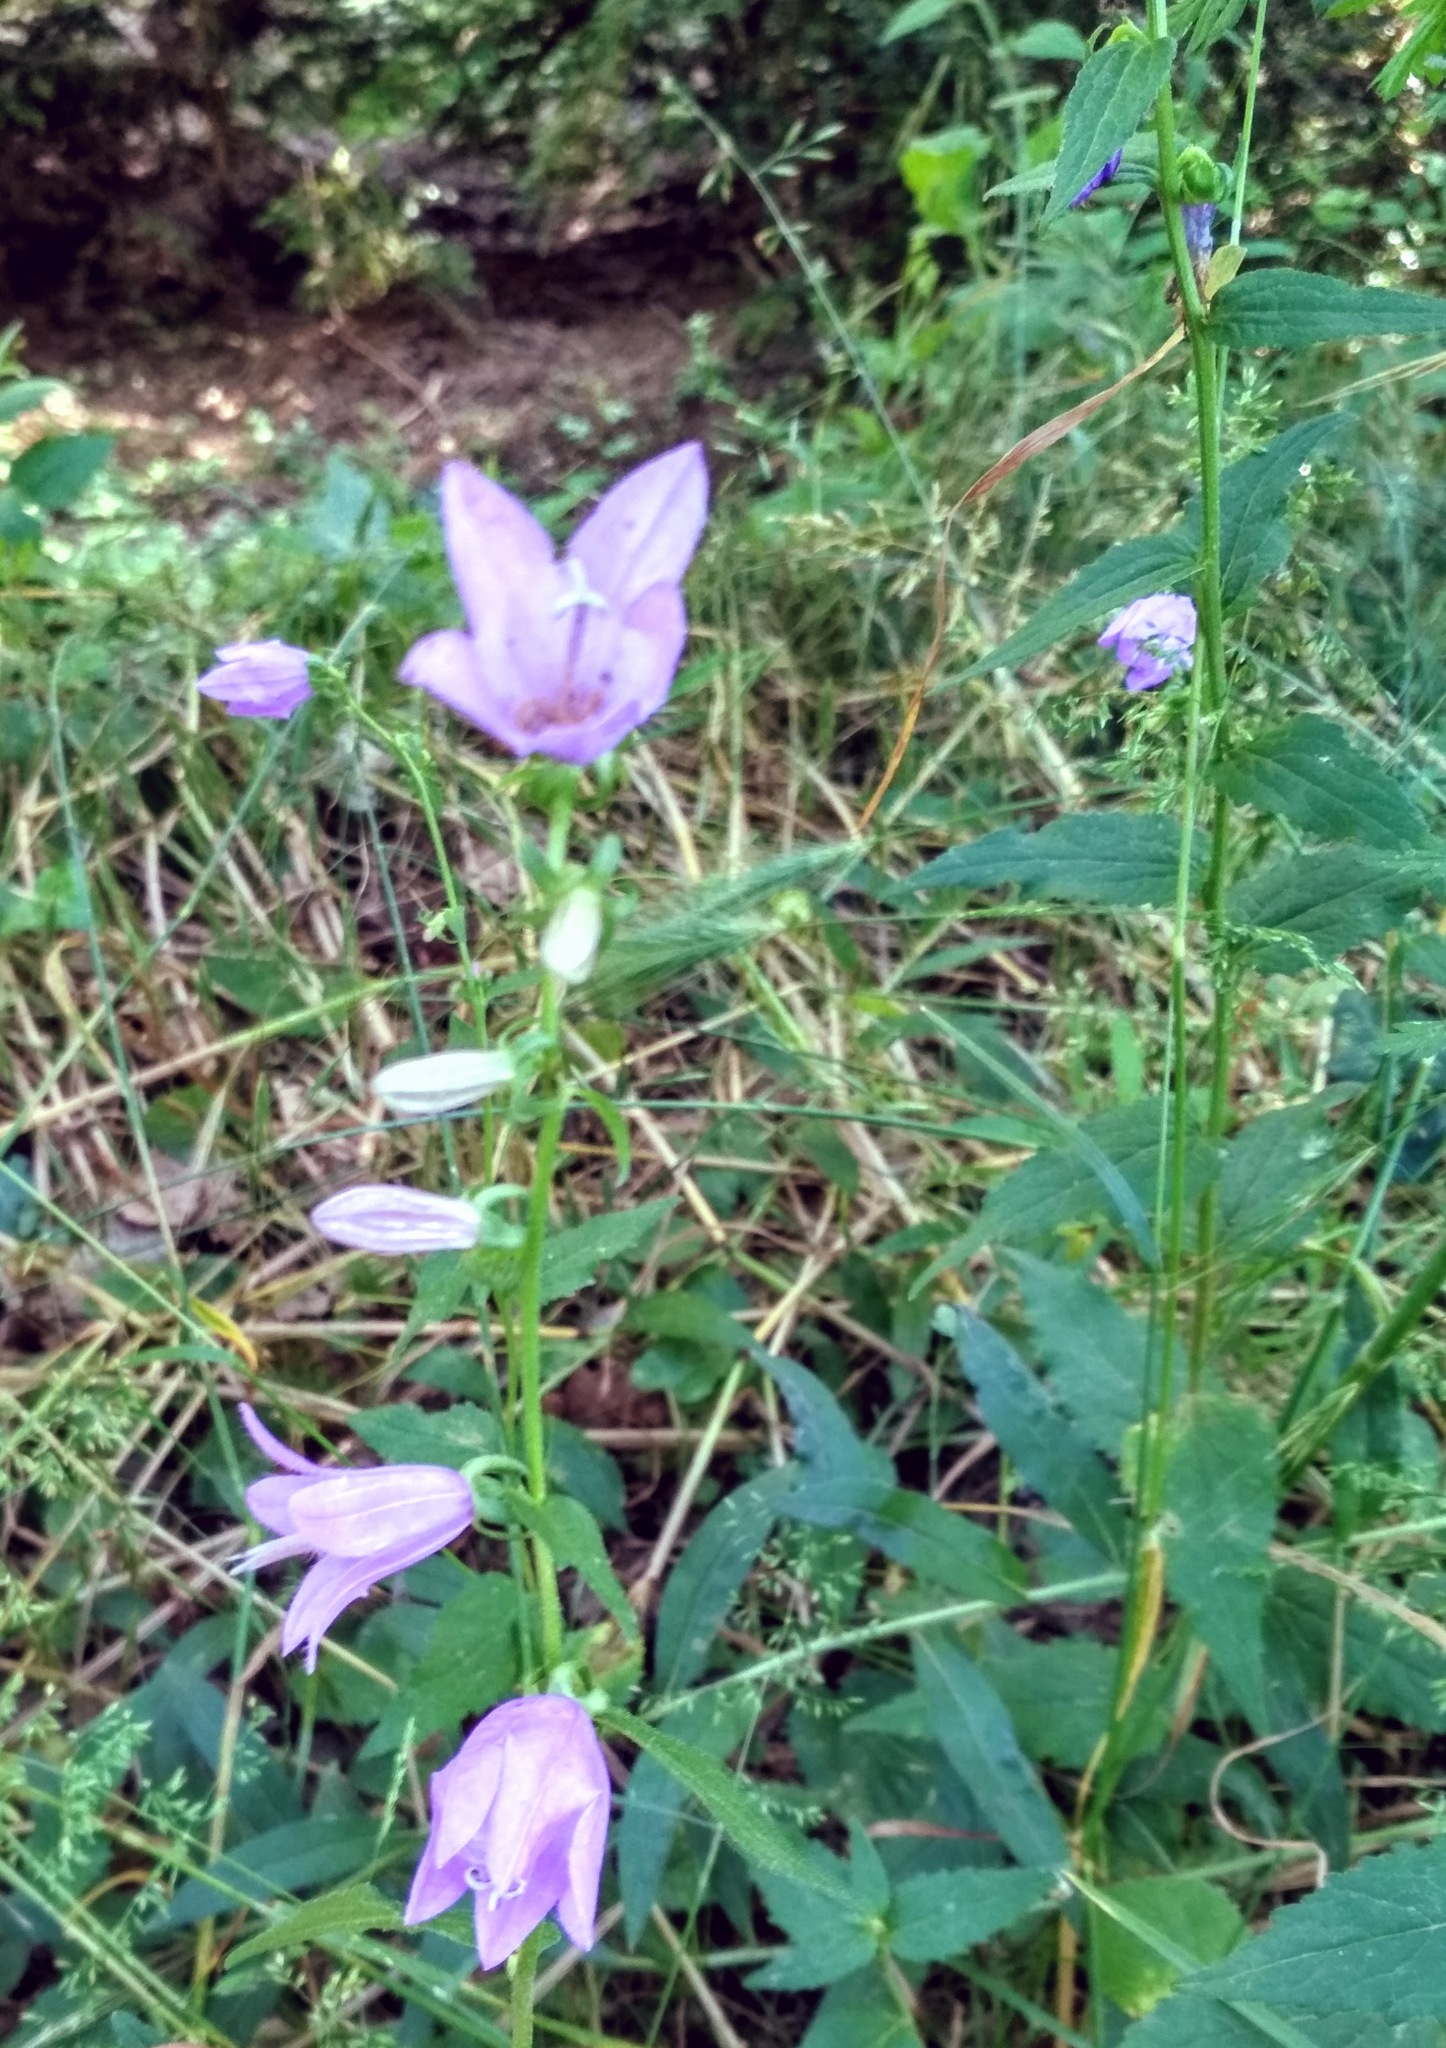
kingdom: Plantae
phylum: Tracheophyta
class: Magnoliopsida
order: Asterales
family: Campanulaceae
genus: Campanula
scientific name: Campanula rapunculoides
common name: Creeping bellflower
